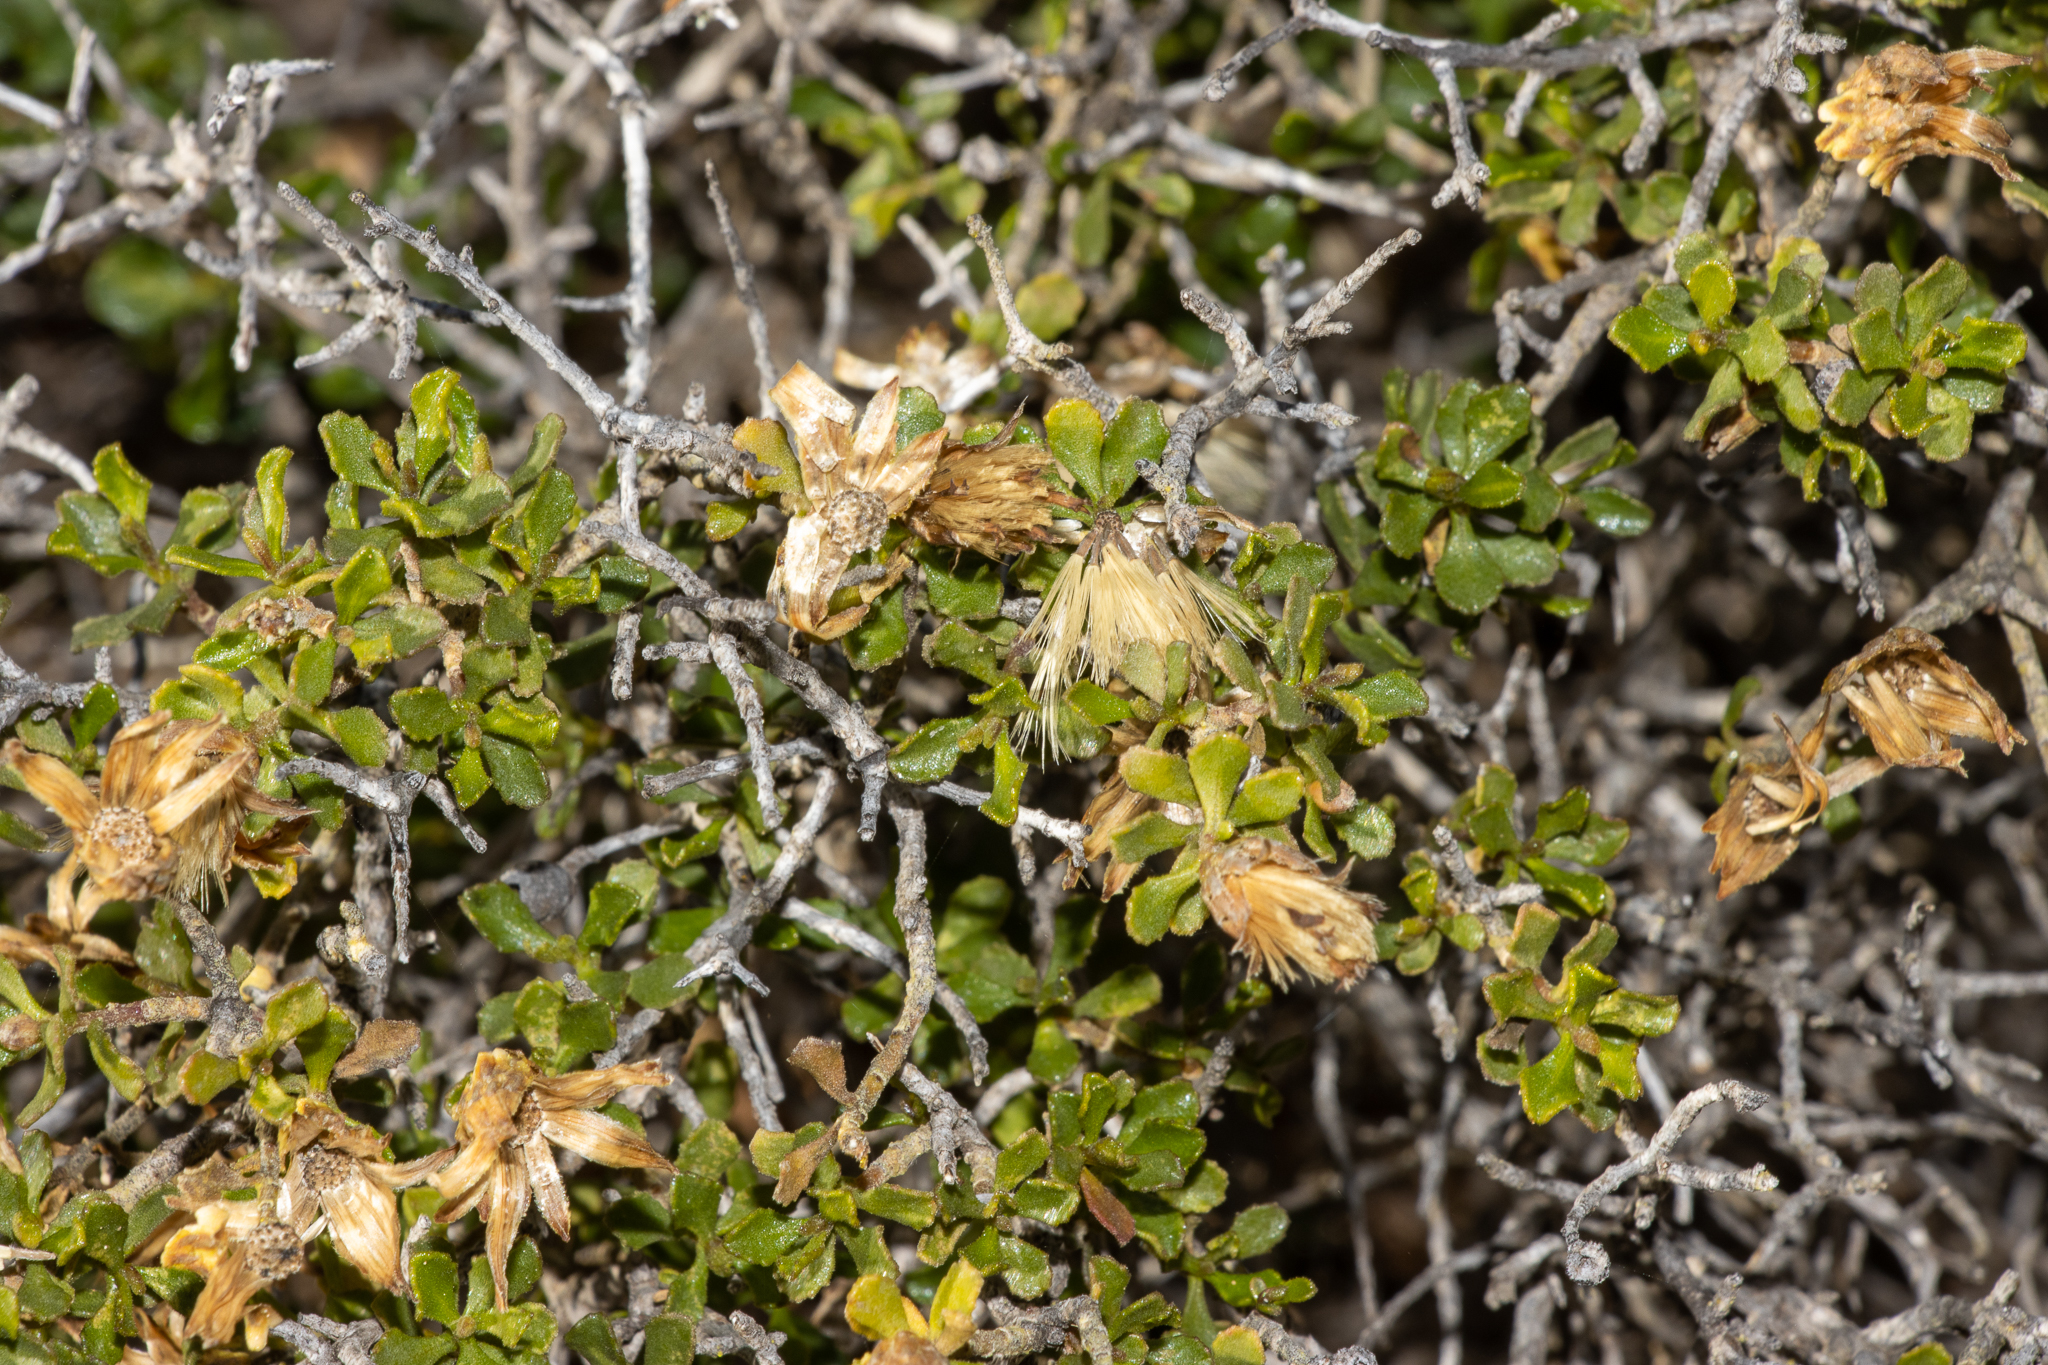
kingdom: Plantae
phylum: Tracheophyta
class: Magnoliopsida
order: Asterales
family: Asteraceae
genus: Walsholaria
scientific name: Walsholaria calcarea
